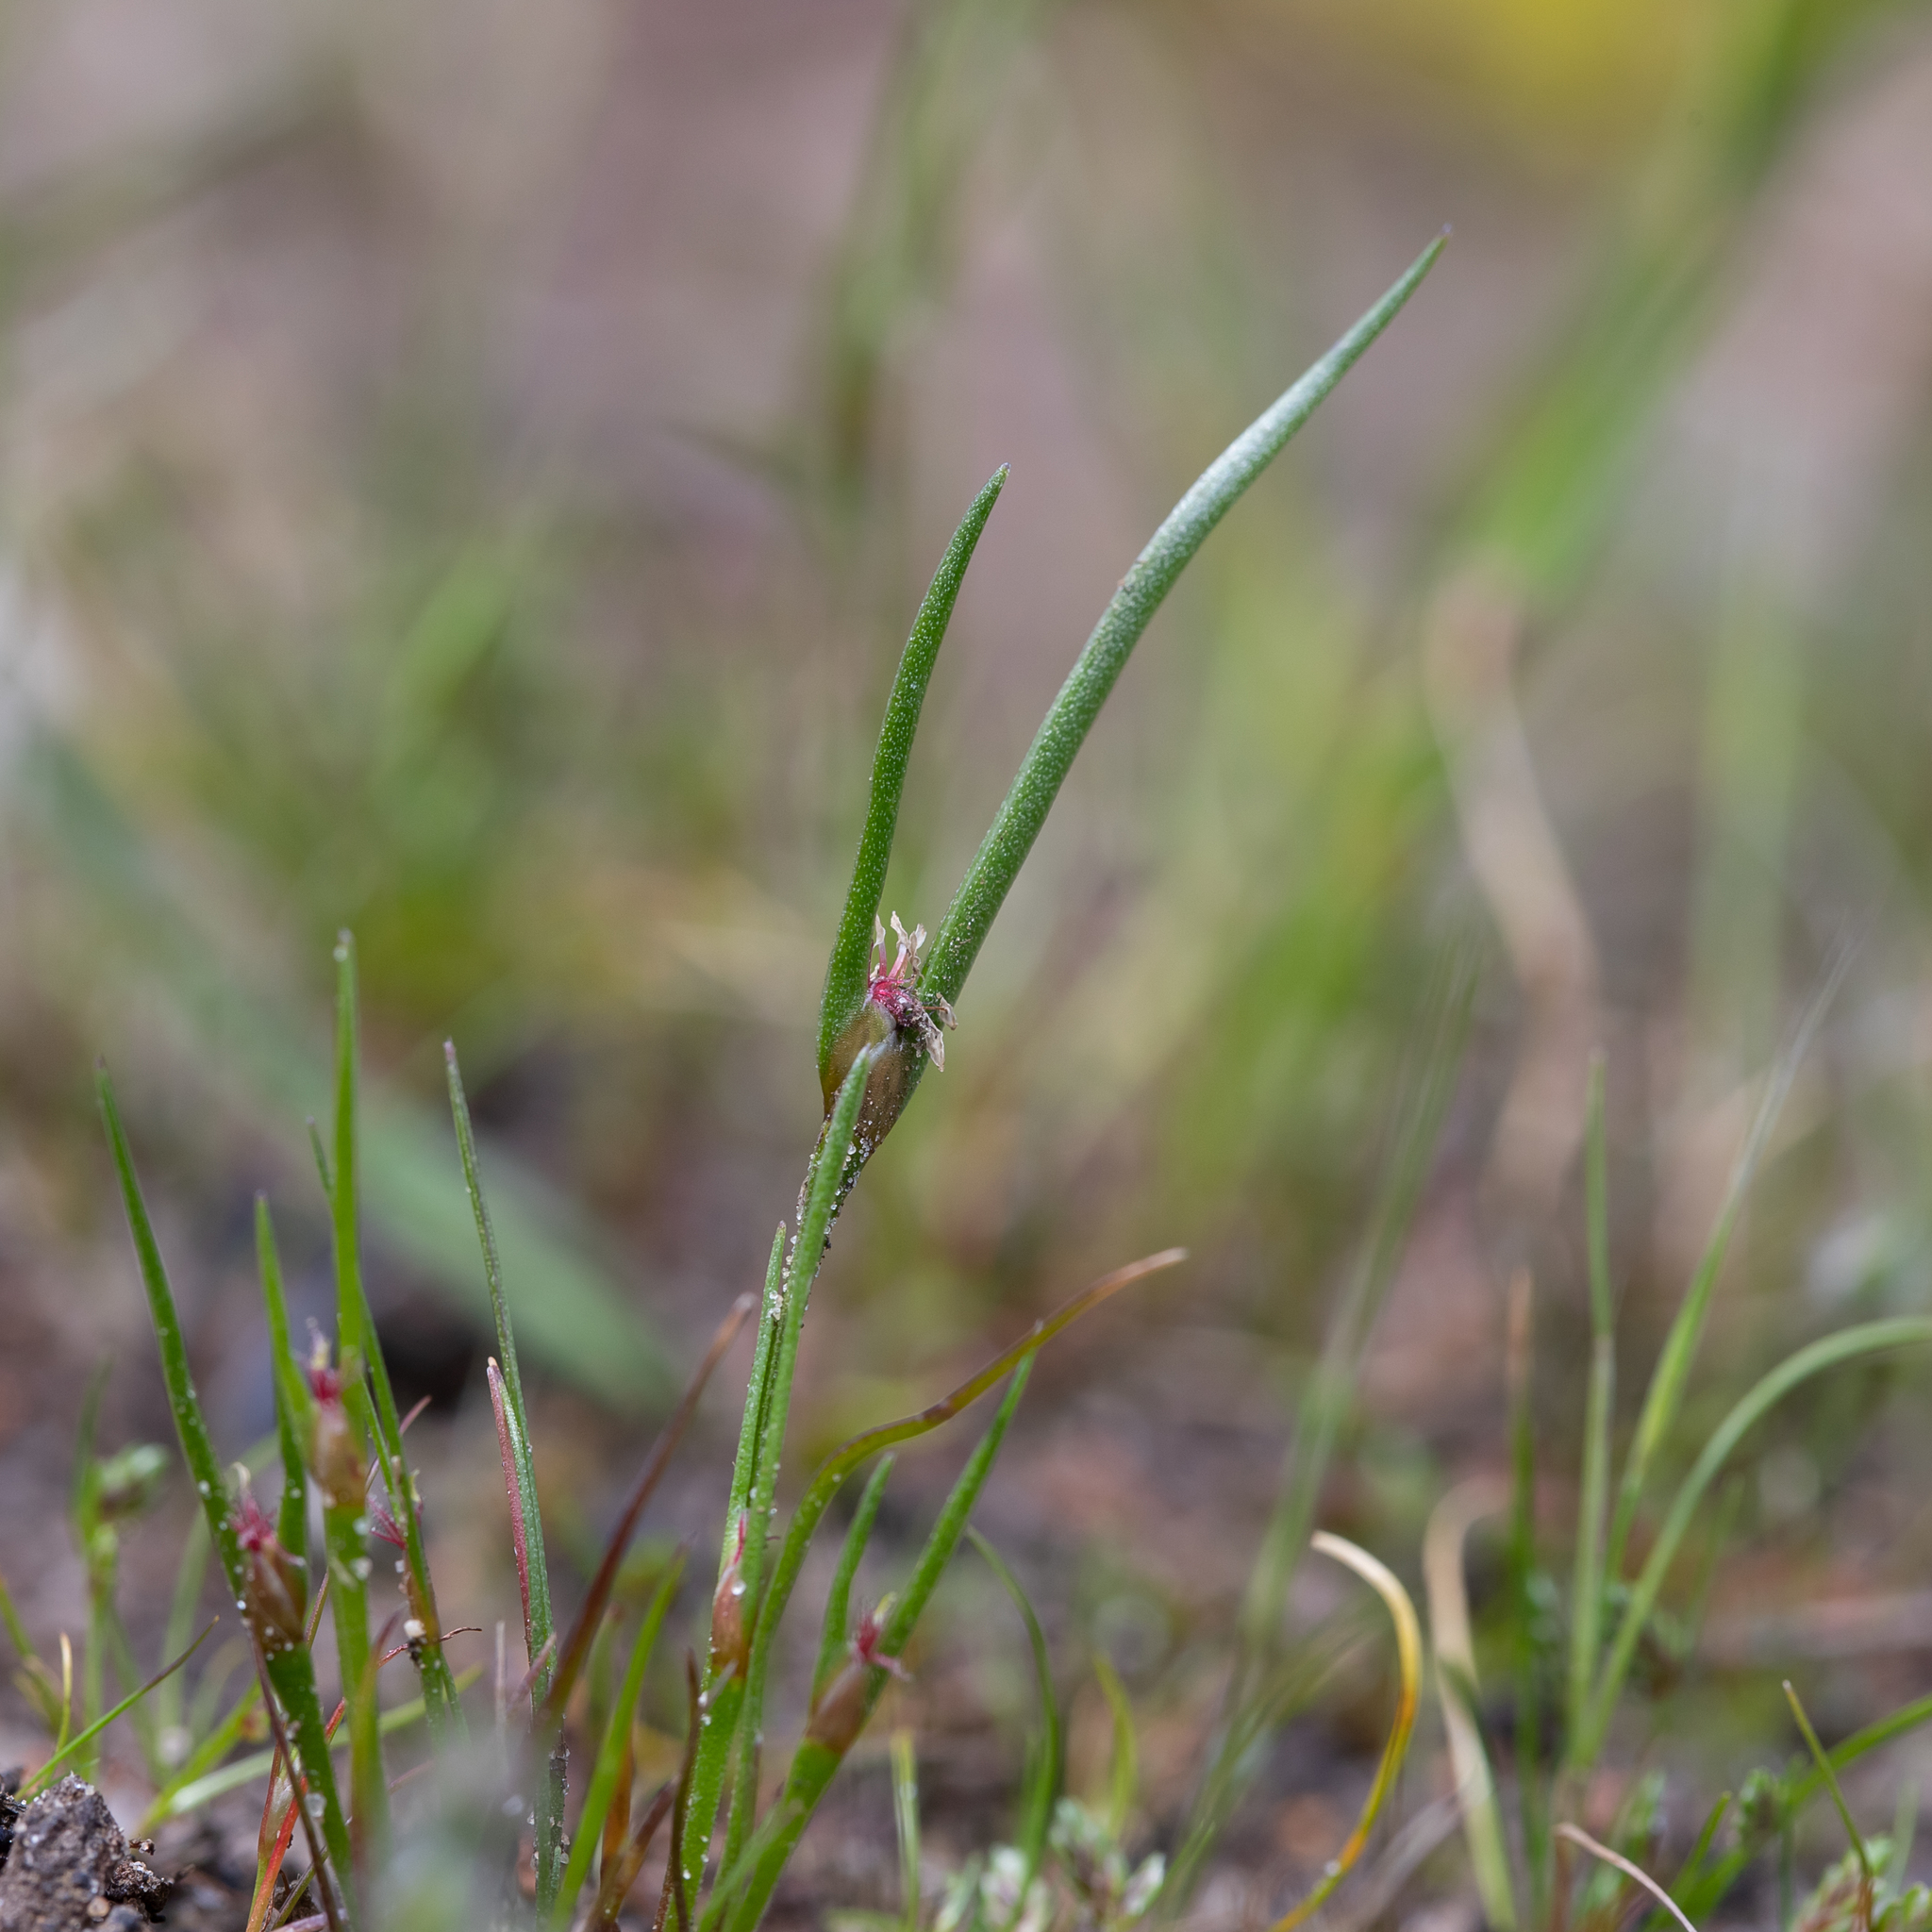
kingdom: Plantae
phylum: Tracheophyta
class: Liliopsida
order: Poales
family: Restionaceae
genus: Centrolepis
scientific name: Centrolepis aristata
